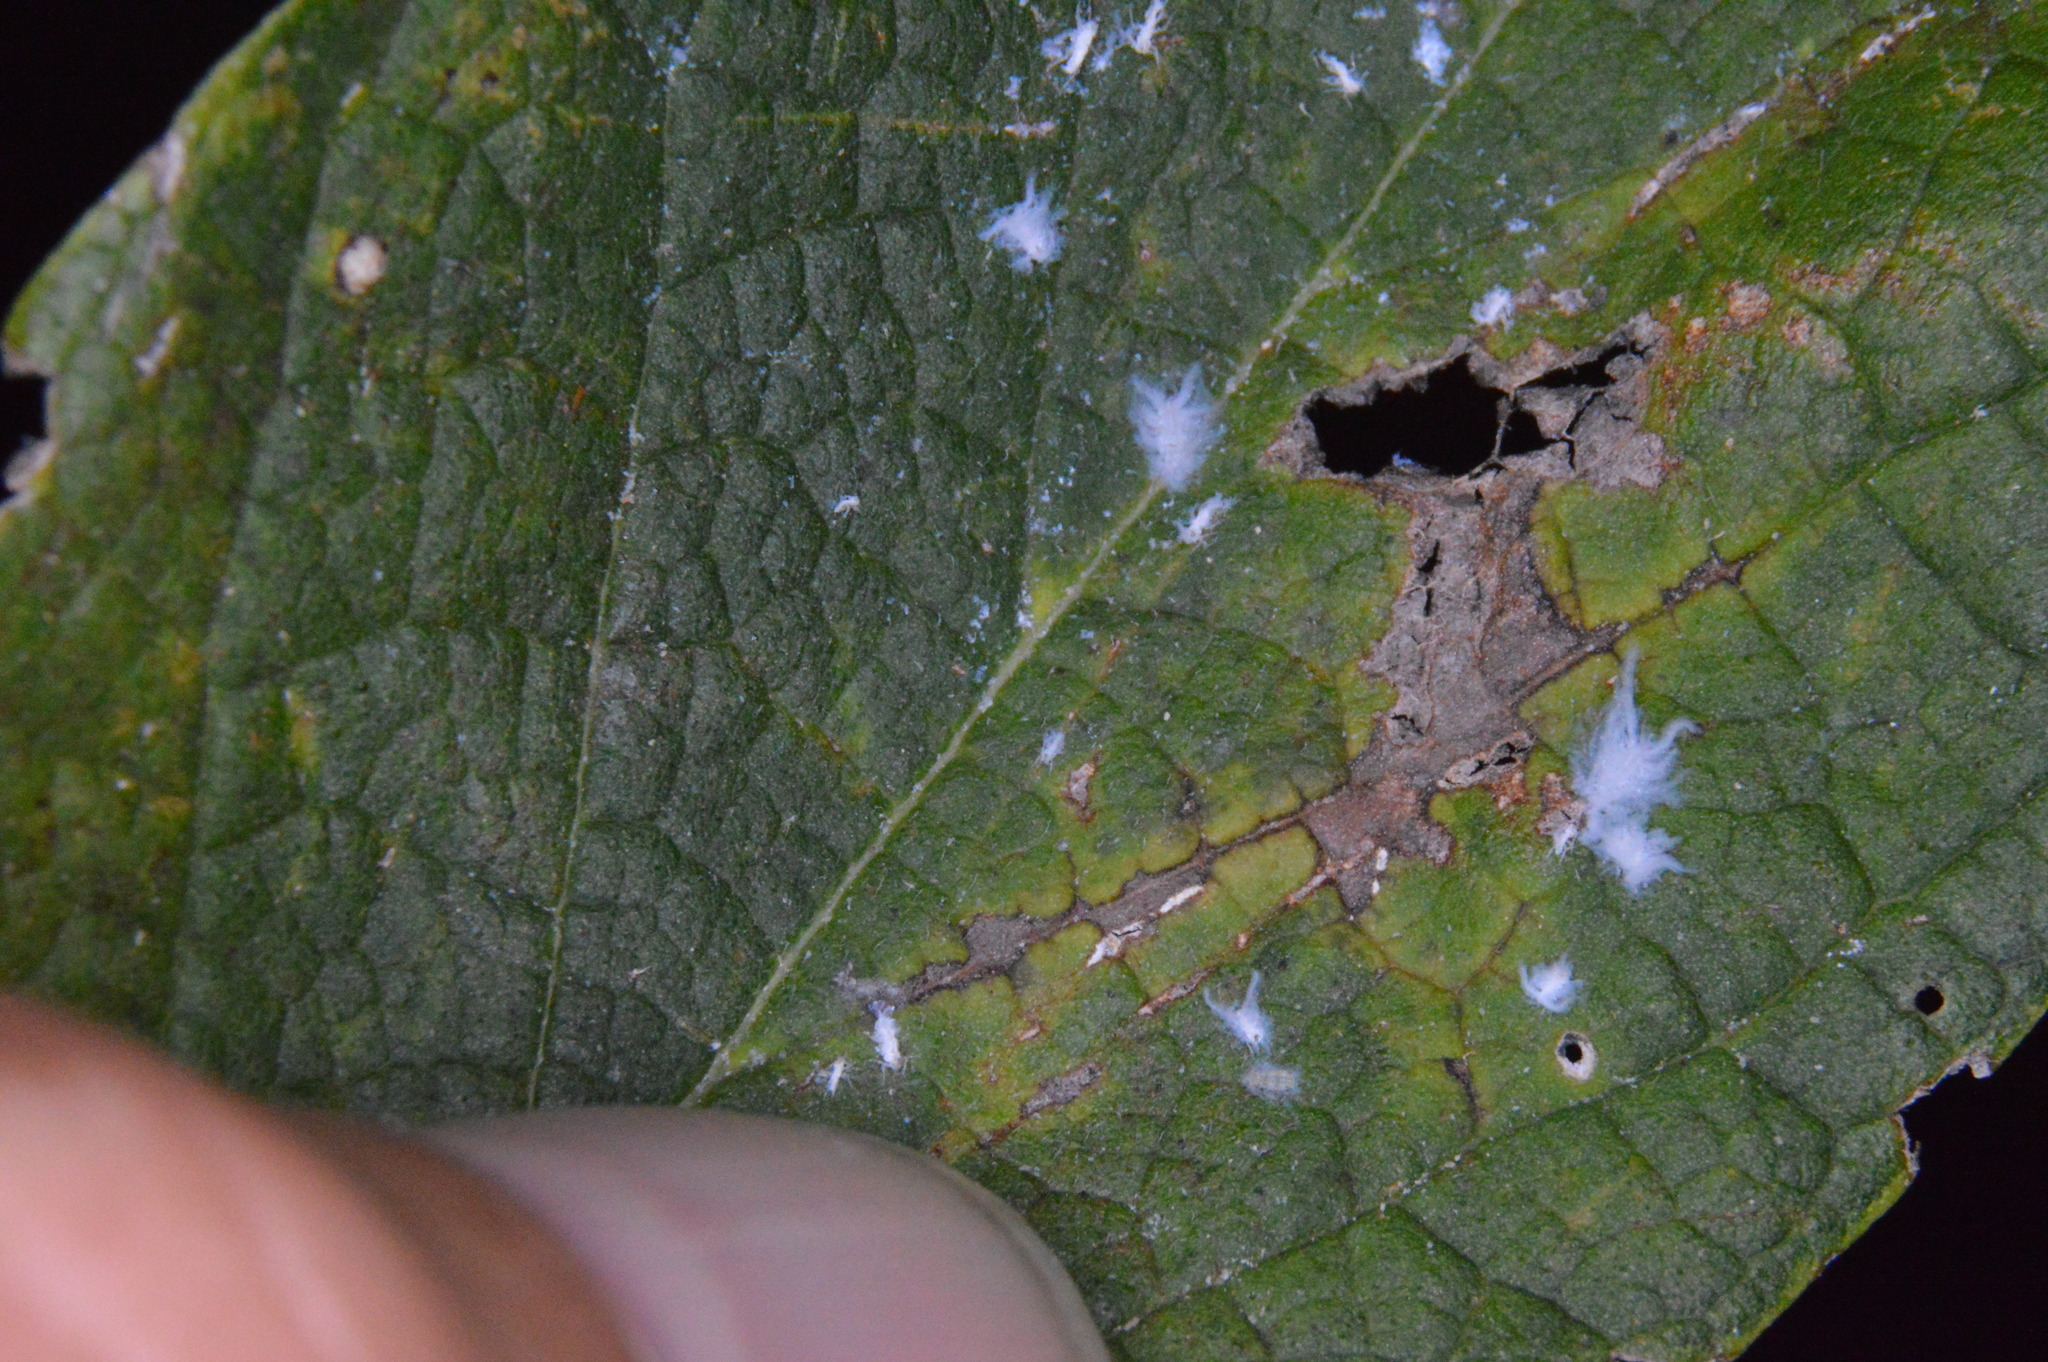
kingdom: Animalia
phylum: Arthropoda
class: Insecta
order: Hemiptera
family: Aphididae
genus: Shivaphis
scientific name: Shivaphis celti
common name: Asian wooly hackberry aphid
